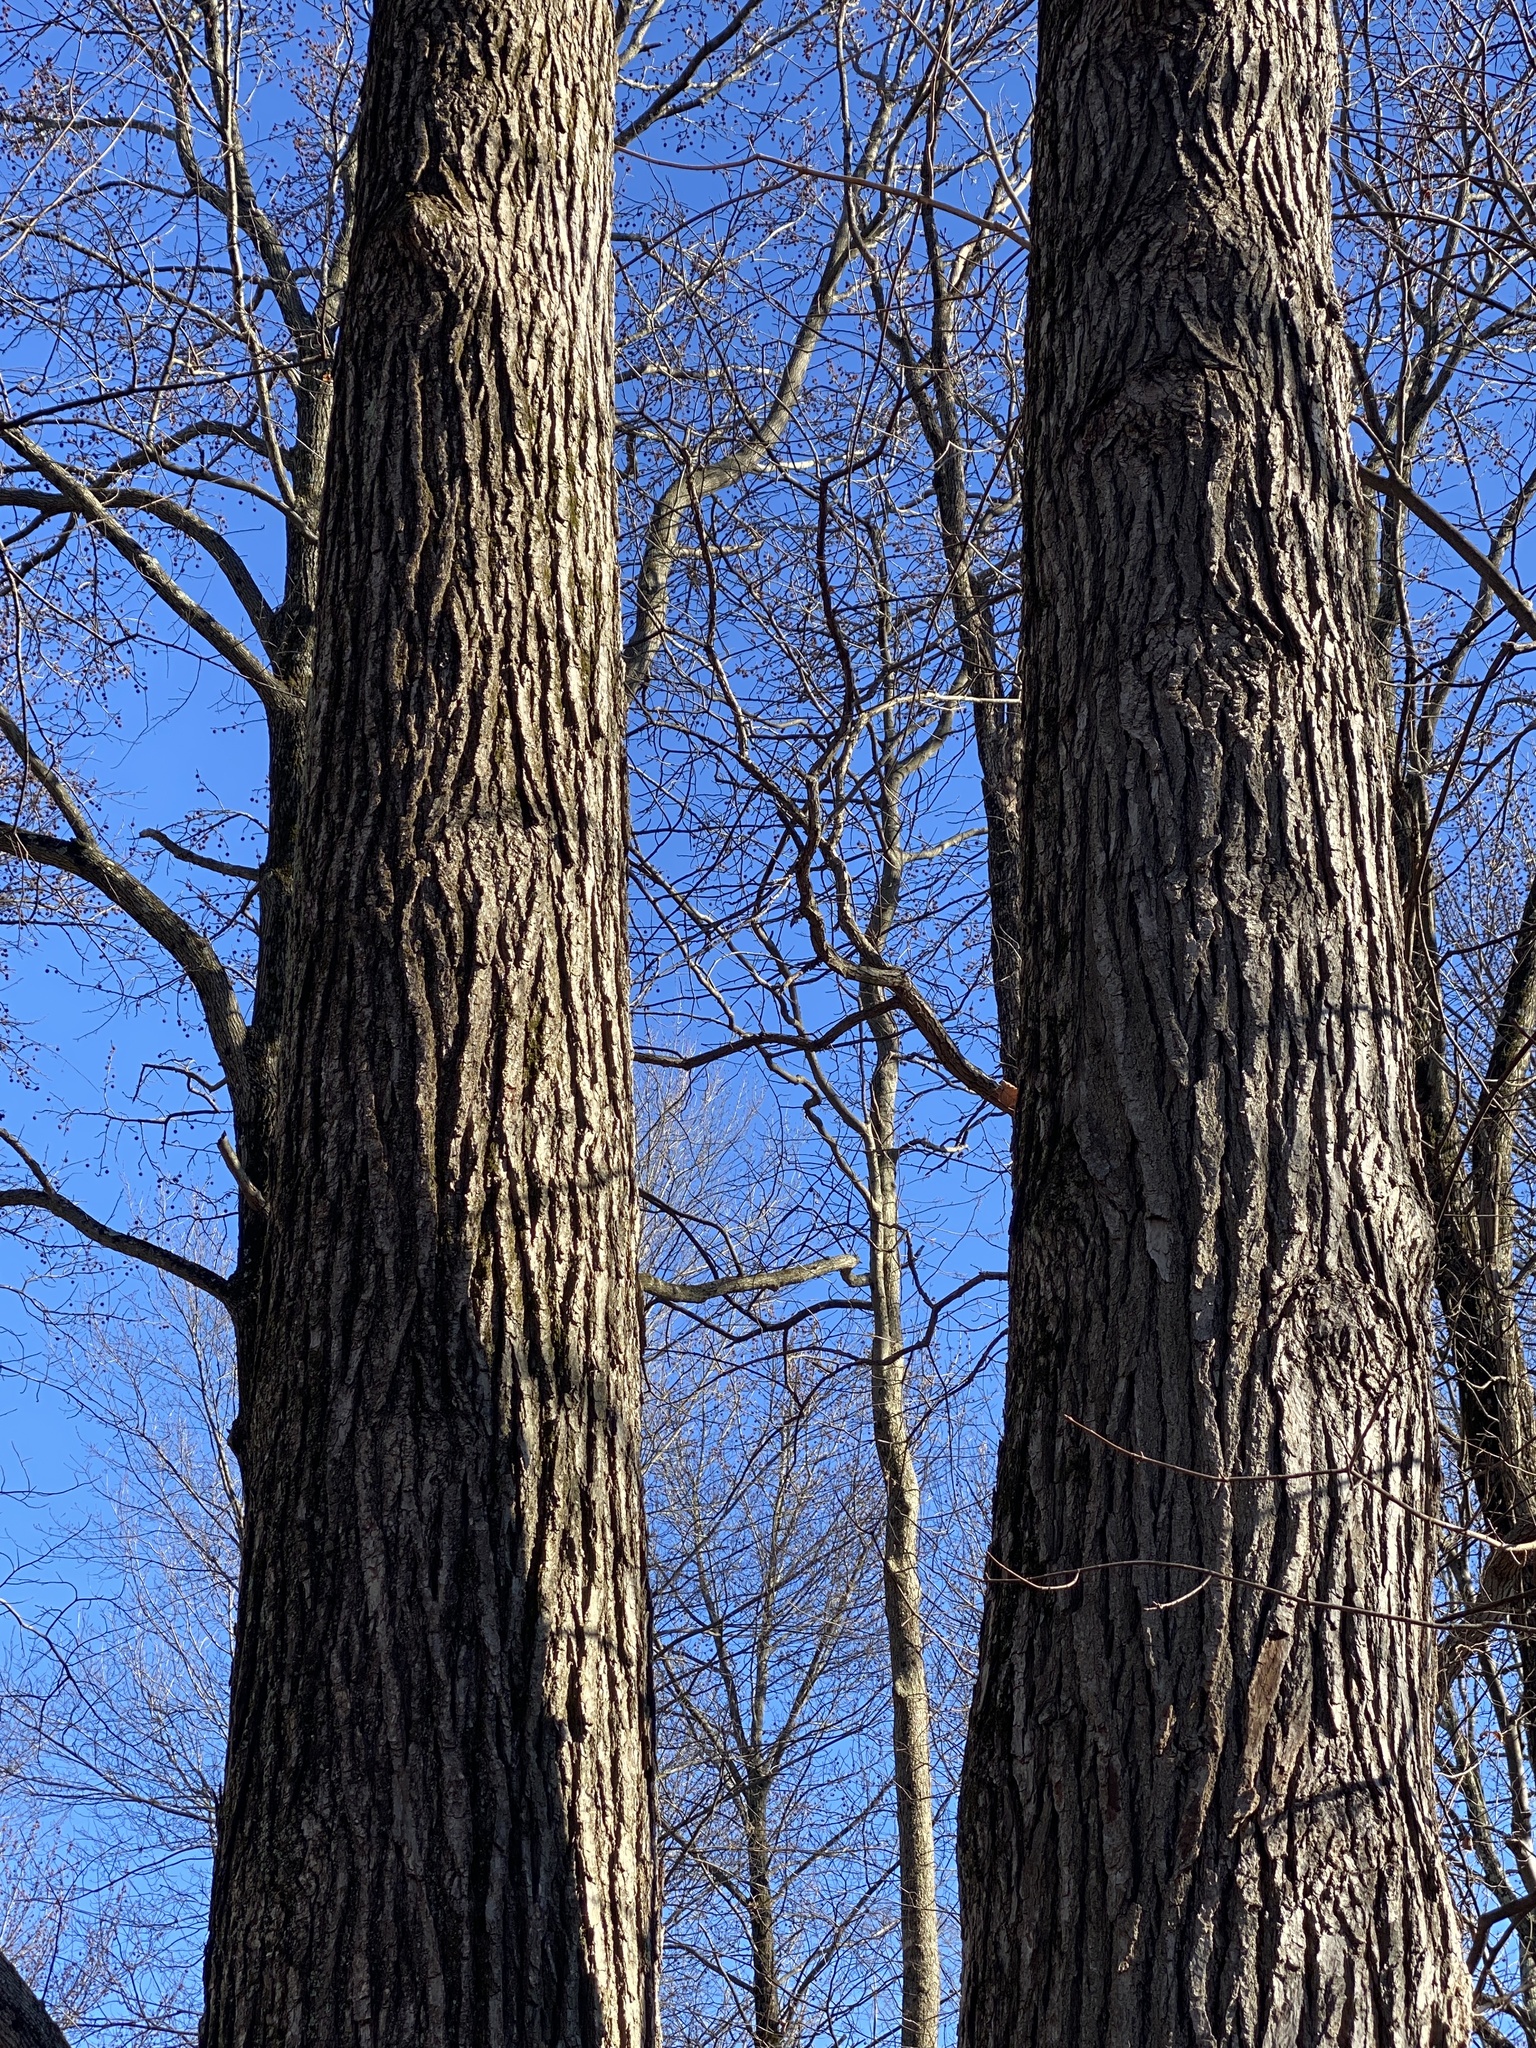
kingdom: Plantae
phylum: Tracheophyta
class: Magnoliopsida
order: Saxifragales
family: Altingiaceae
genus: Liquidambar
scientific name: Liquidambar styraciflua
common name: Sweet gum
